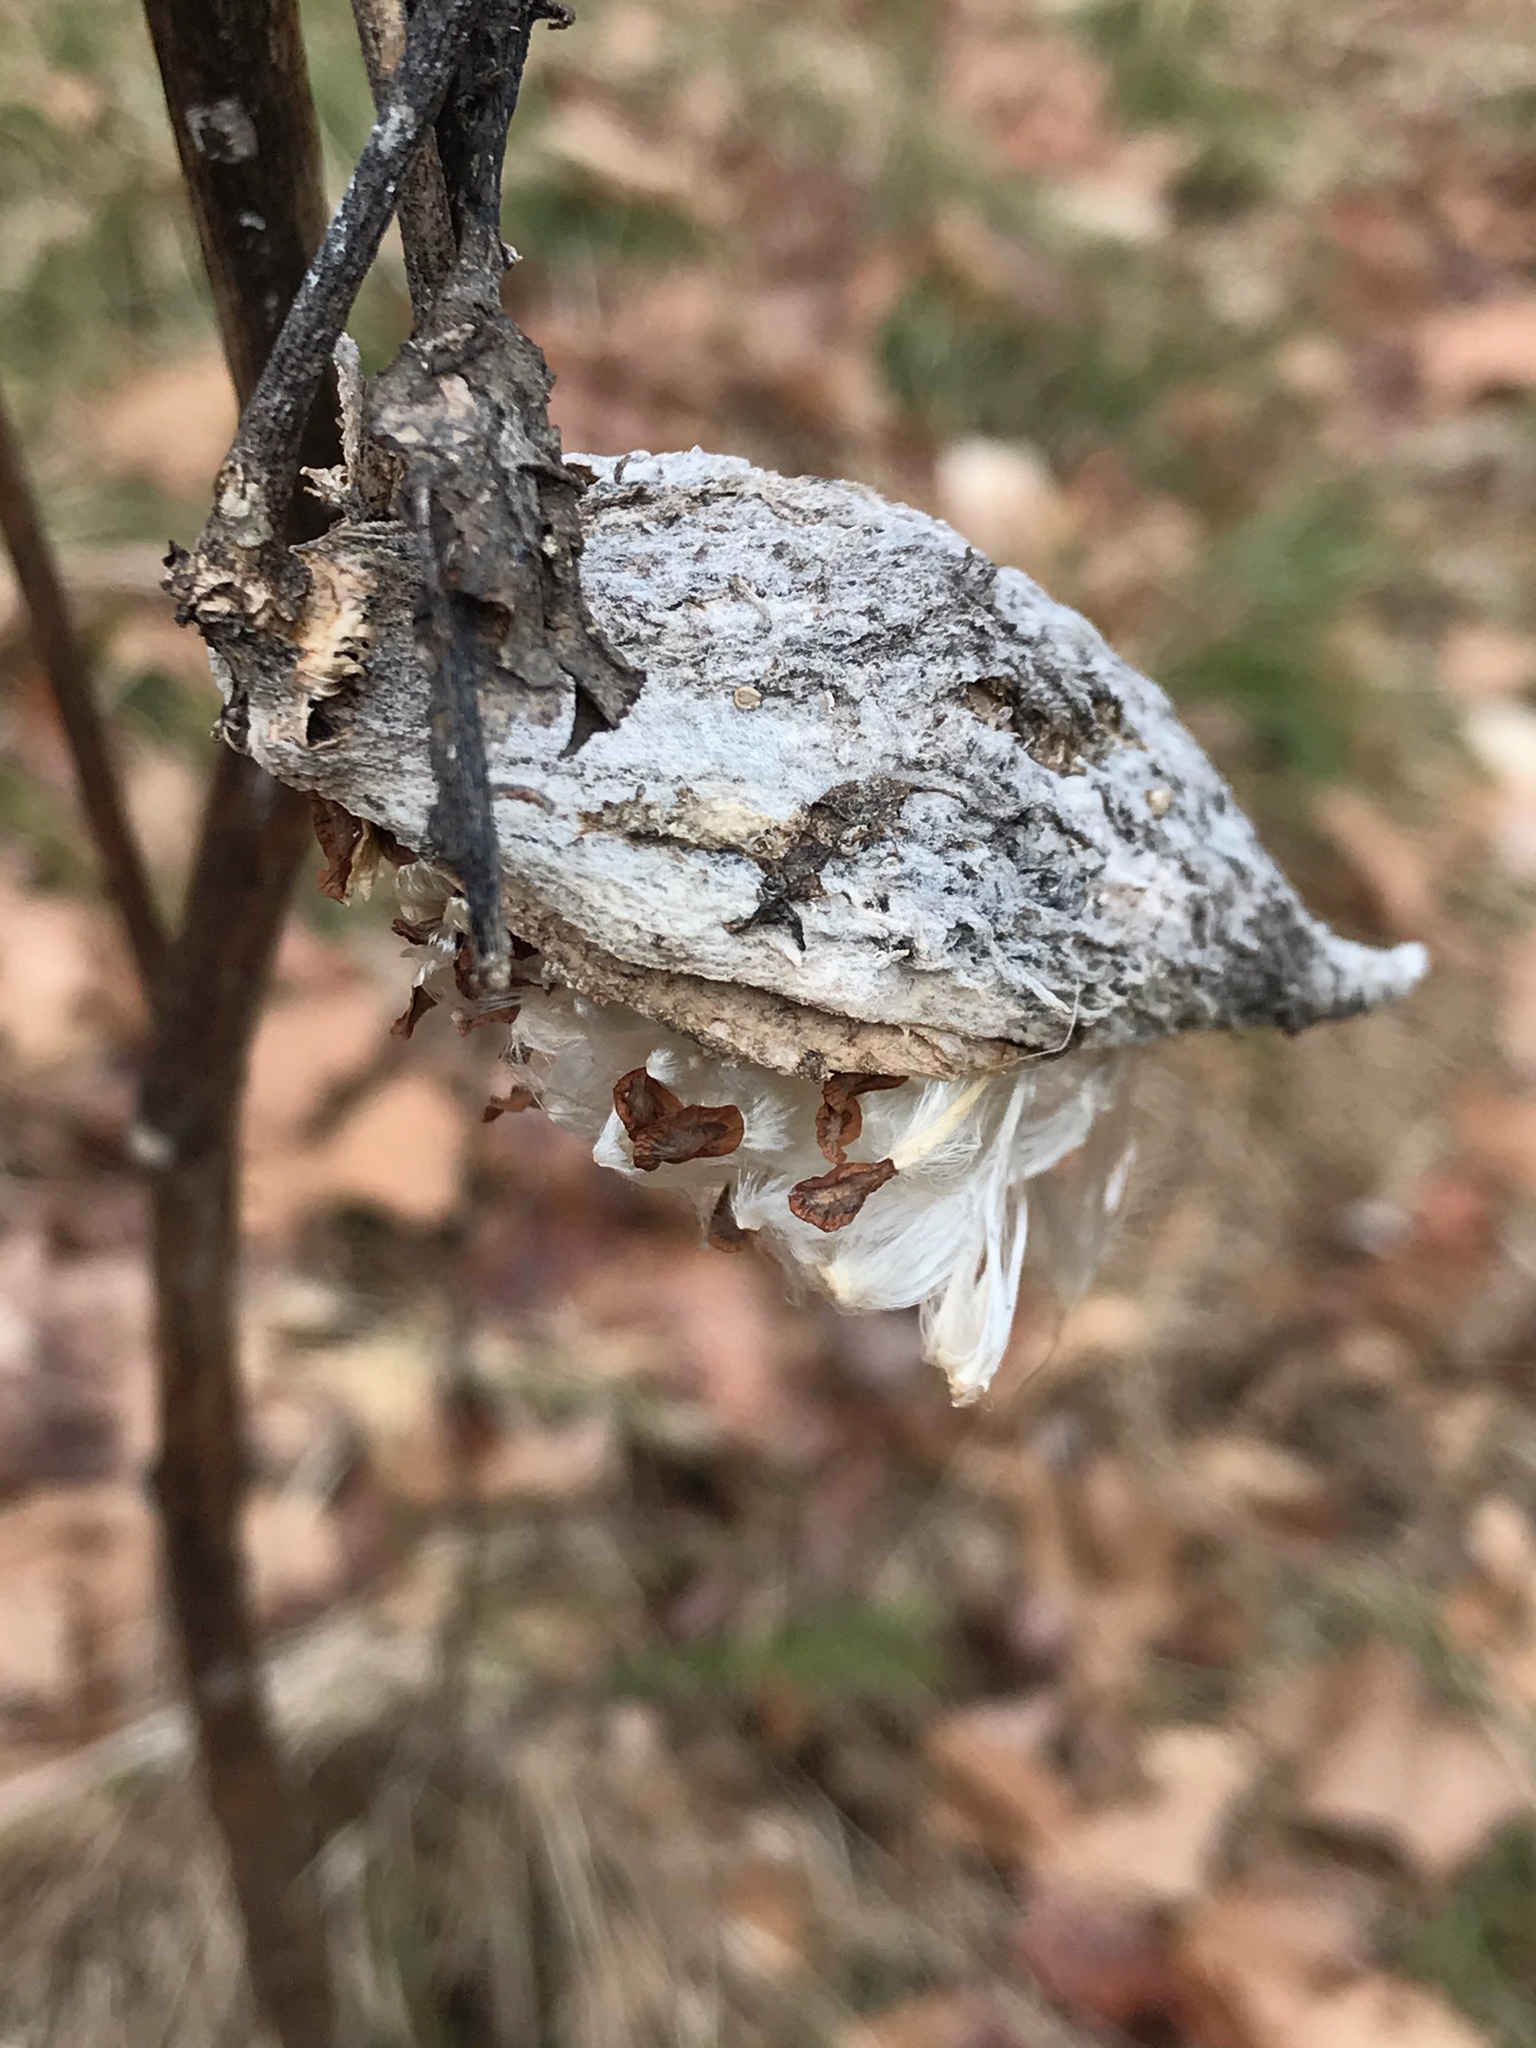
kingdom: Plantae
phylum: Tracheophyta
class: Magnoliopsida
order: Gentianales
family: Apocynaceae
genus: Asclepias
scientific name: Asclepias syriaca
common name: Common milkweed
